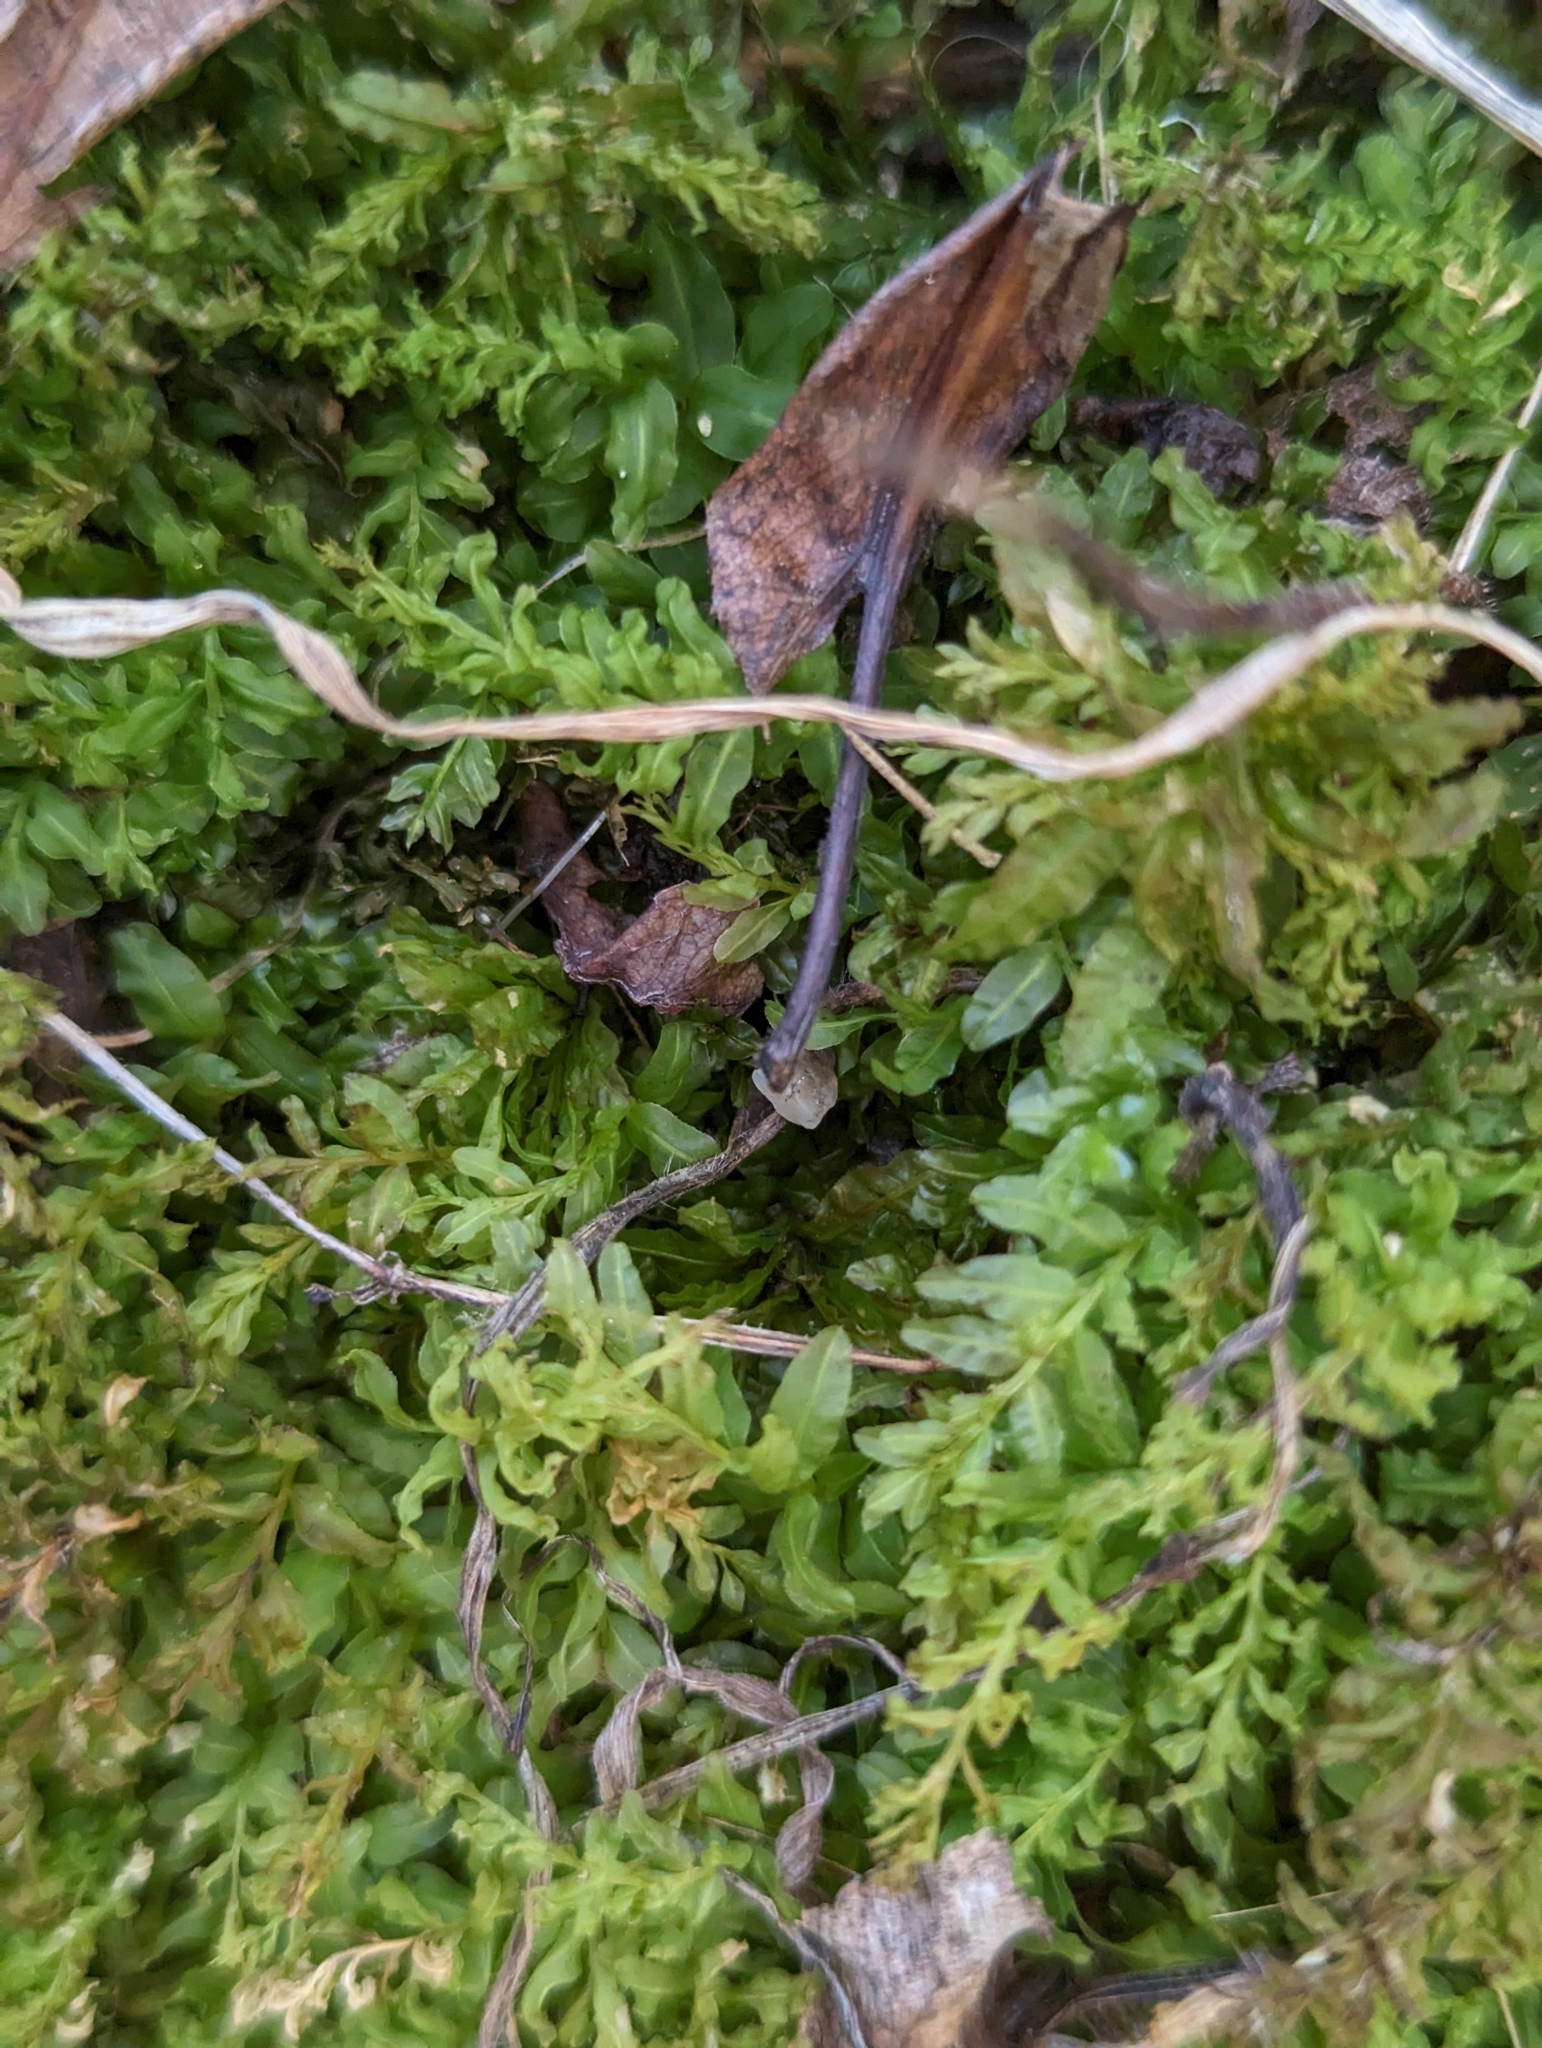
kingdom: Plantae
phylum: Bryophyta
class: Bryopsida
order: Bryales
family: Mniaceae
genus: Plagiomnium
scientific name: Plagiomnium undulatum
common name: Hart's-tongue thyme-moss
